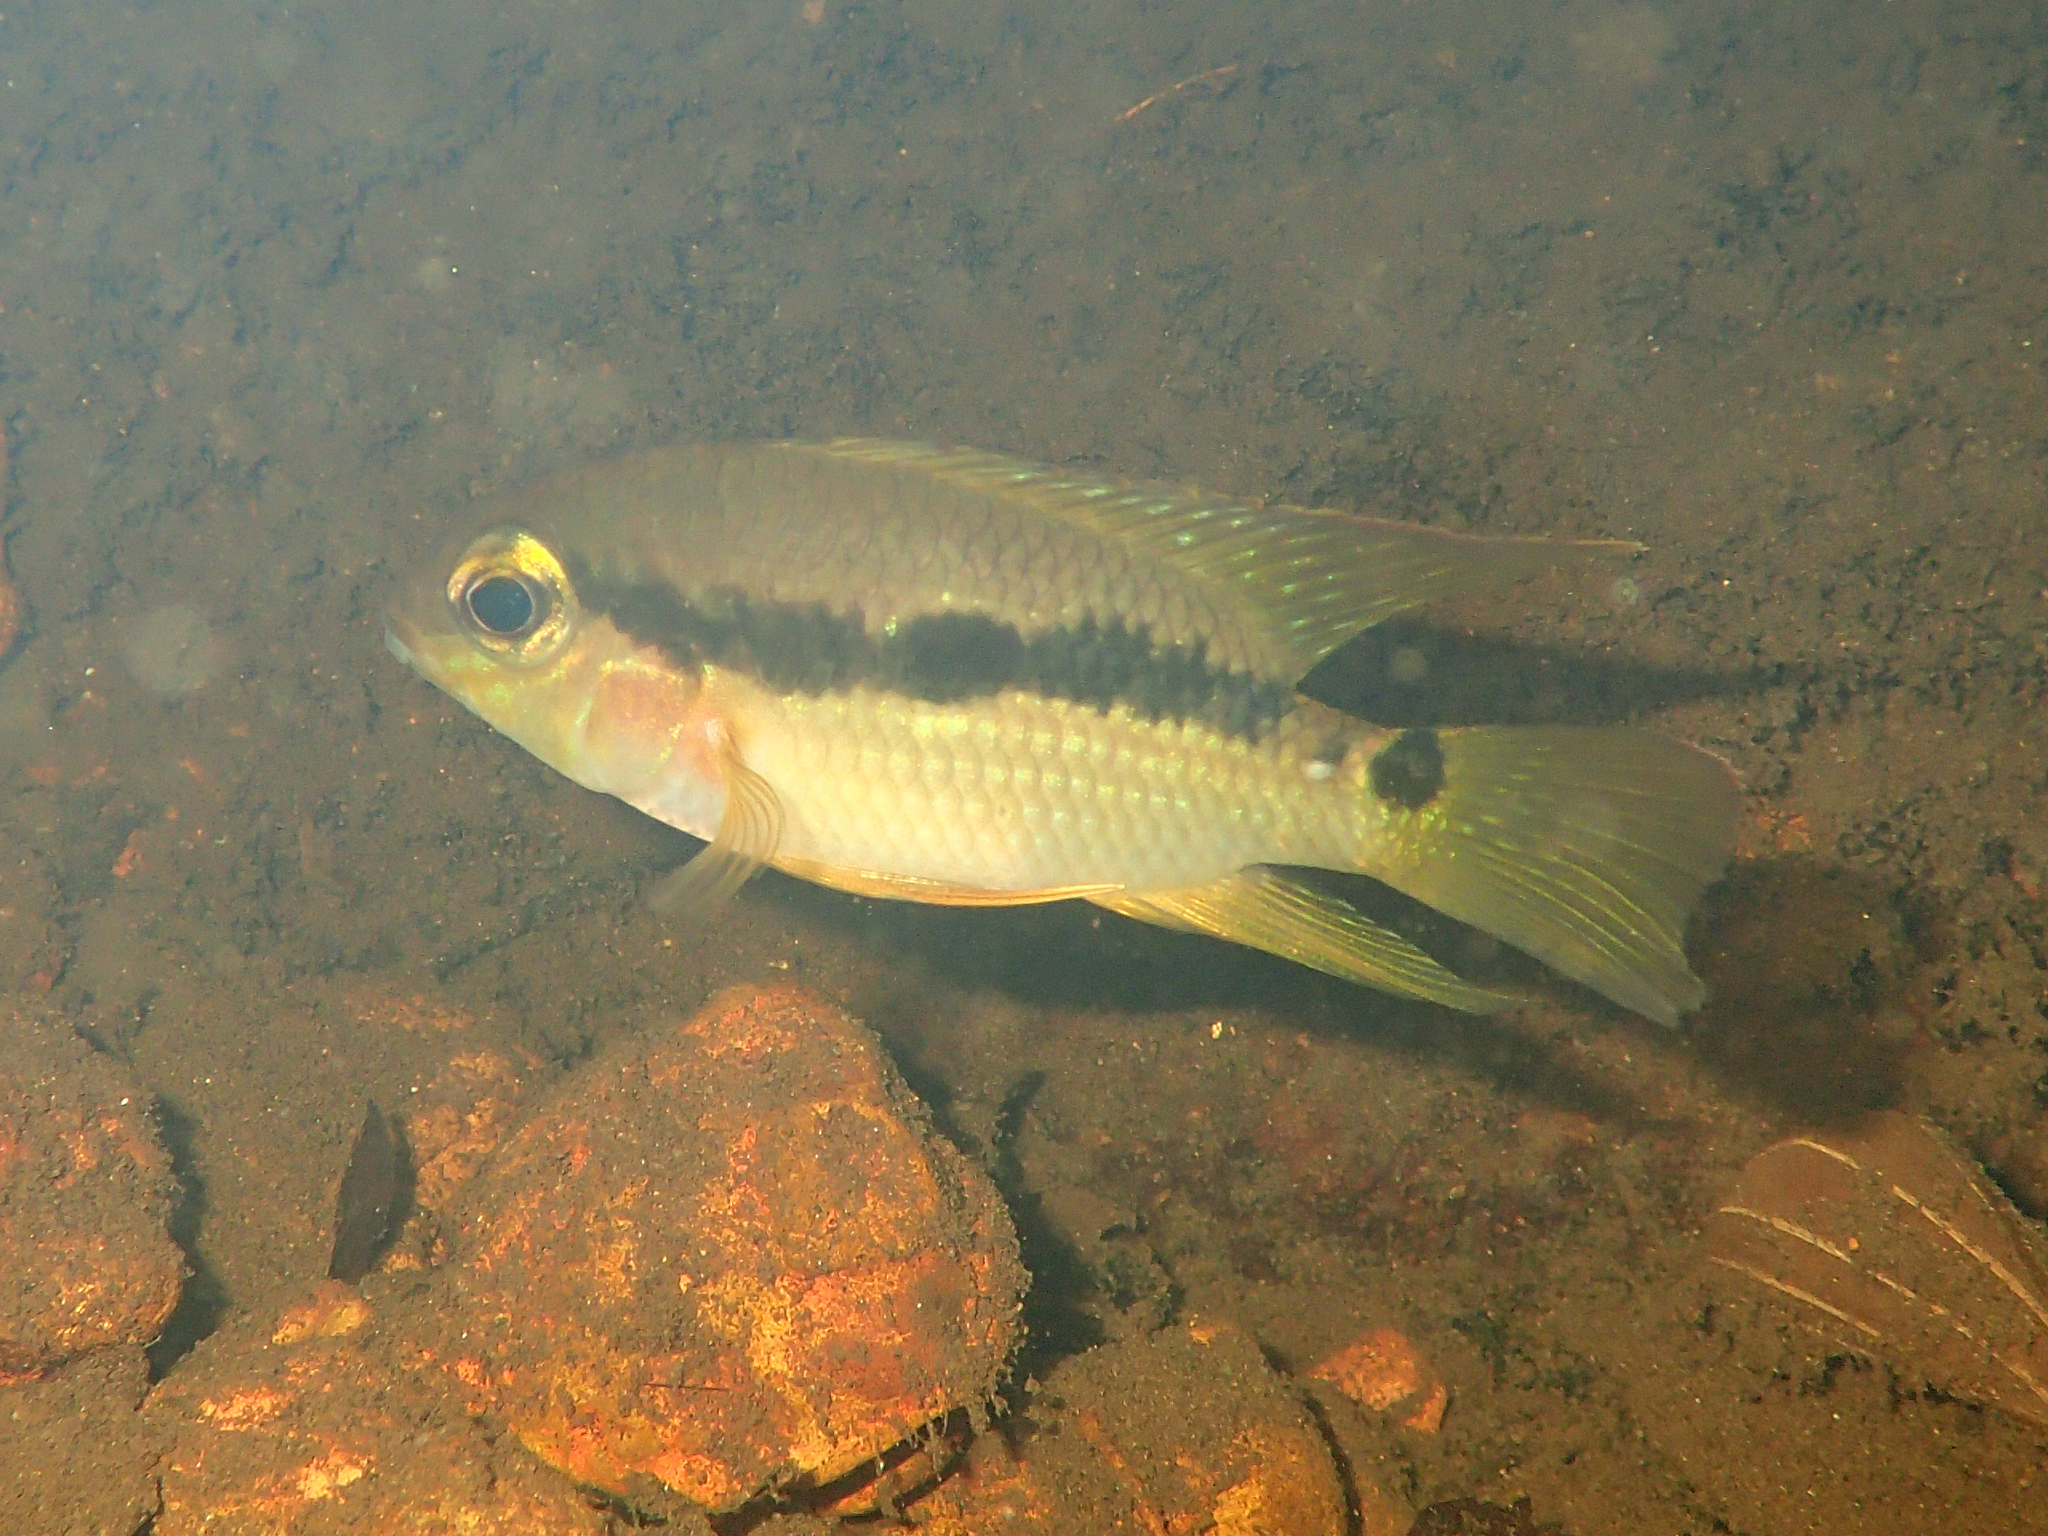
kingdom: Animalia
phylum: Chordata
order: Perciformes
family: Cichlidae
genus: Krobia
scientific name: Krobia guianensis
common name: Patwa
